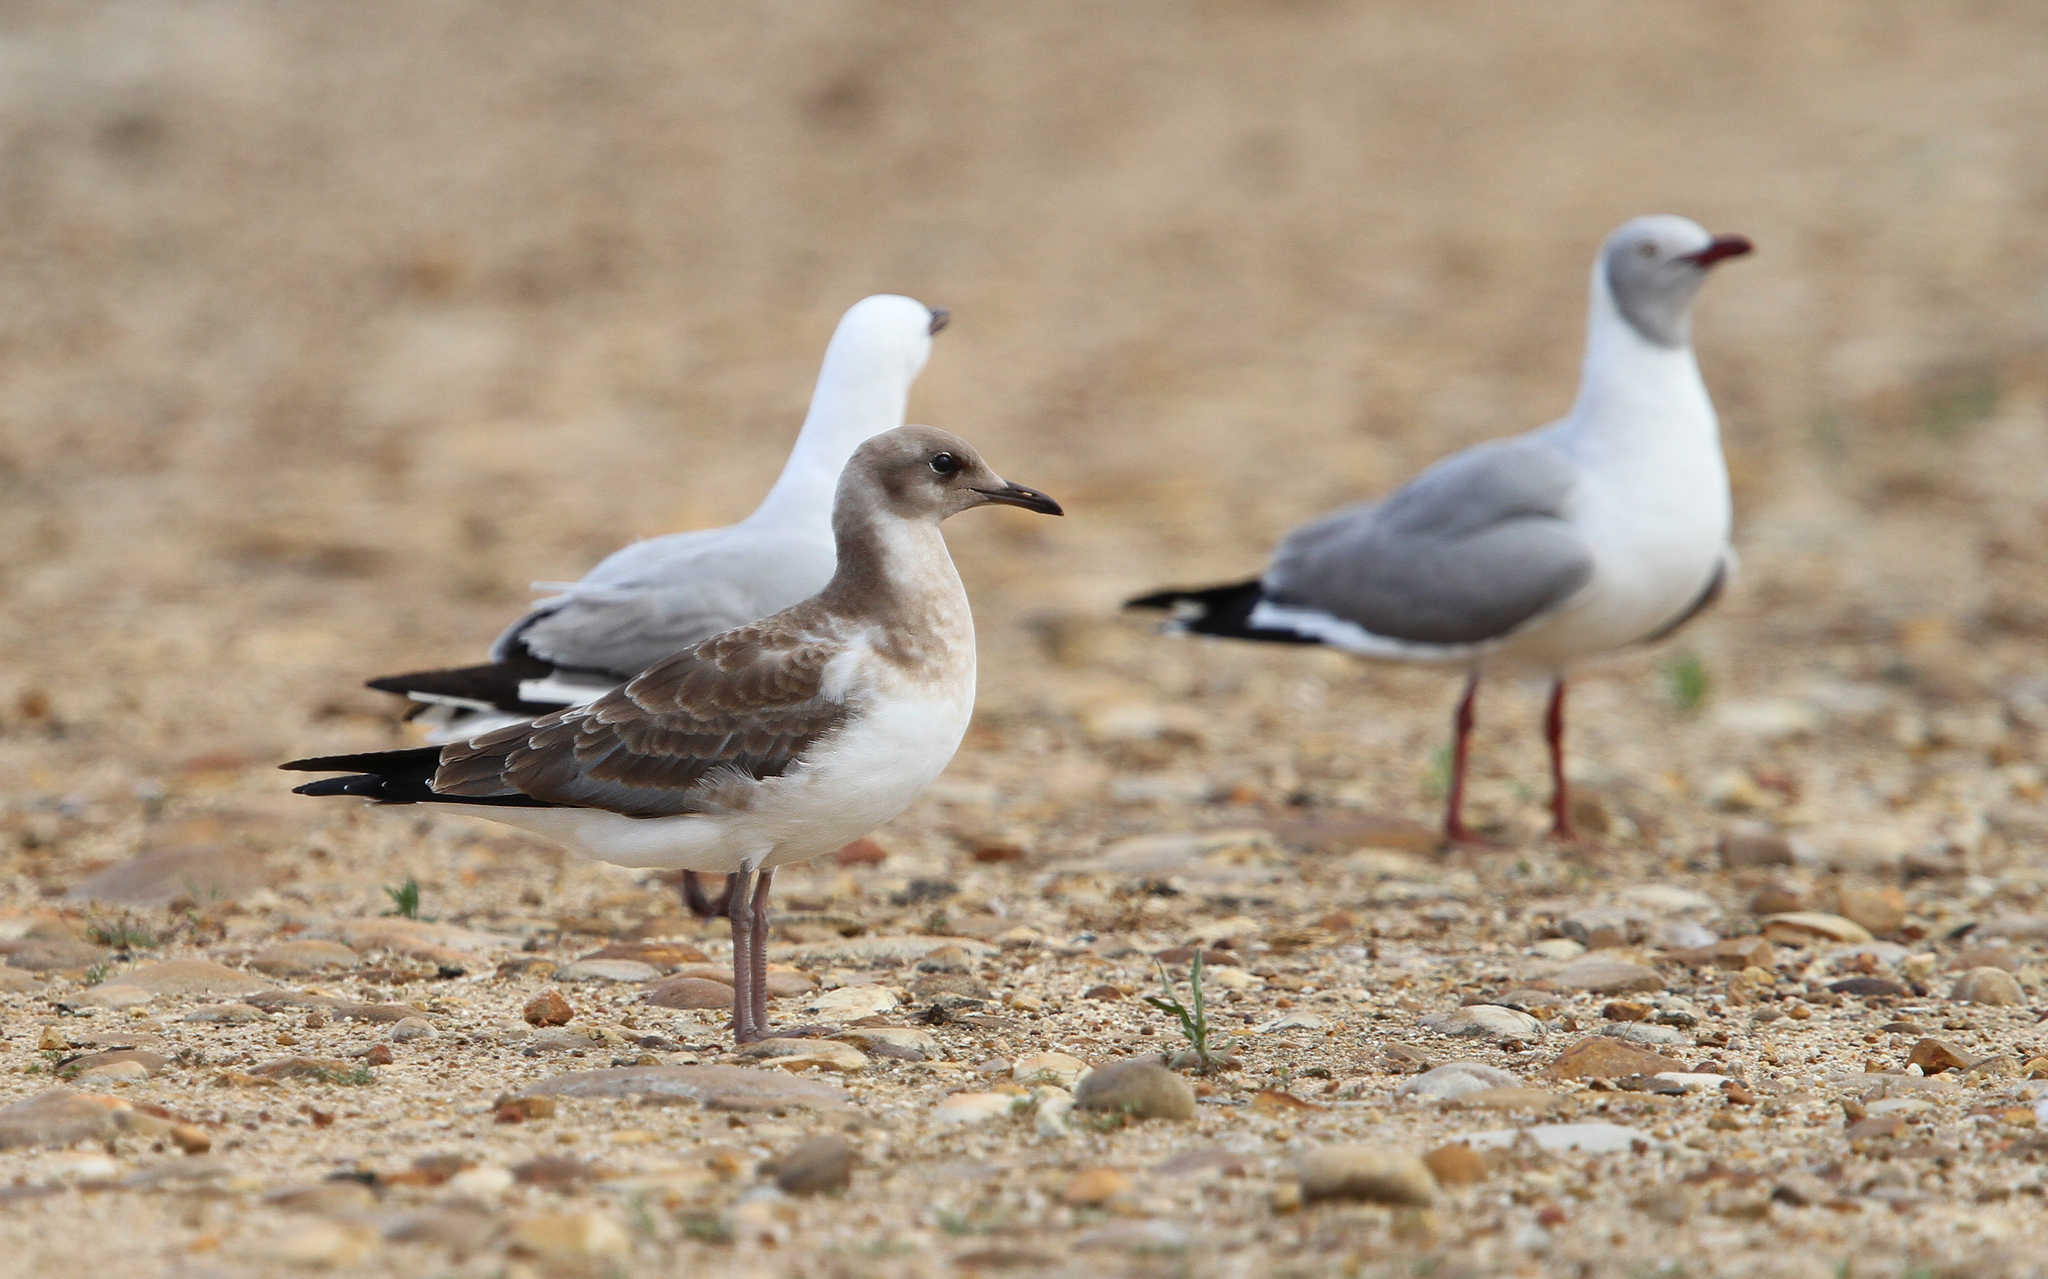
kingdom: Animalia
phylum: Chordata
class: Aves
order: Charadriiformes
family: Laridae
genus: Chroicocephalus
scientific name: Chroicocephalus hartlaubii
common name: Hartlaub's gull
